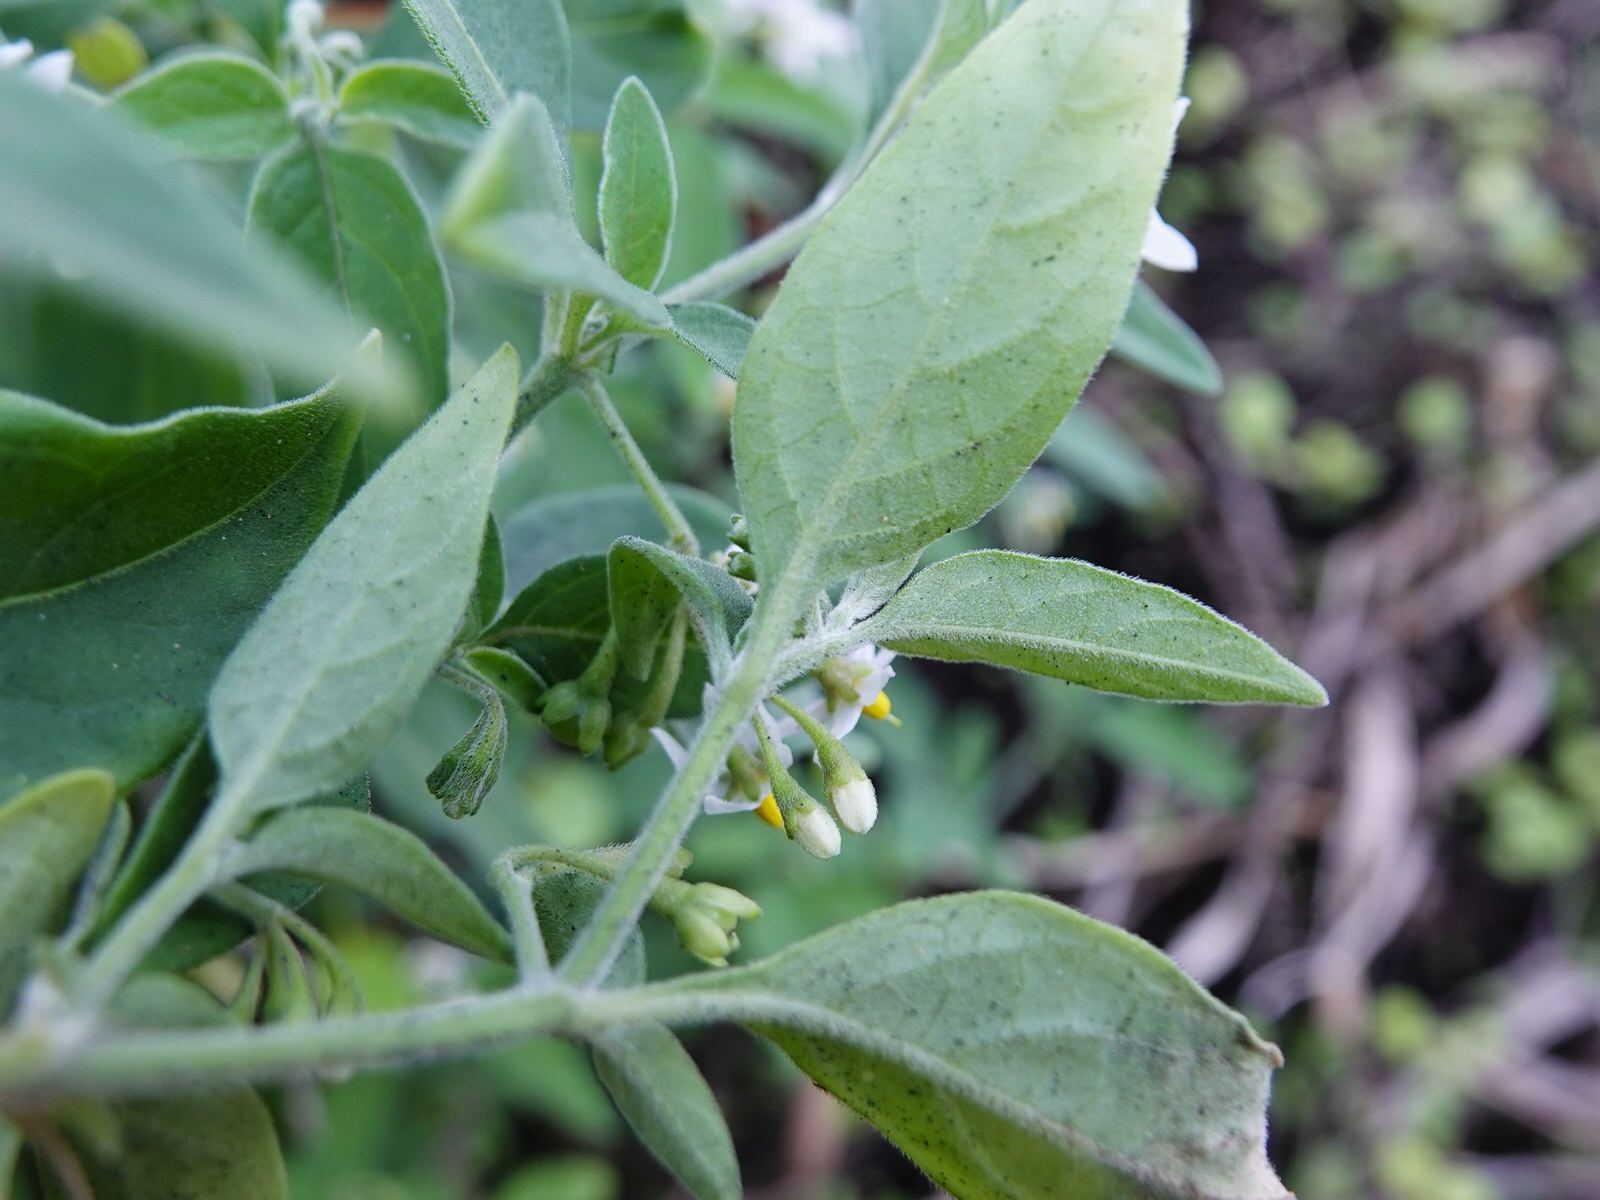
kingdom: Plantae
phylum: Tracheophyta
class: Magnoliopsida
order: Solanales
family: Solanaceae
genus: Solanum
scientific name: Solanum chenopodioides
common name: Tall nightshade
